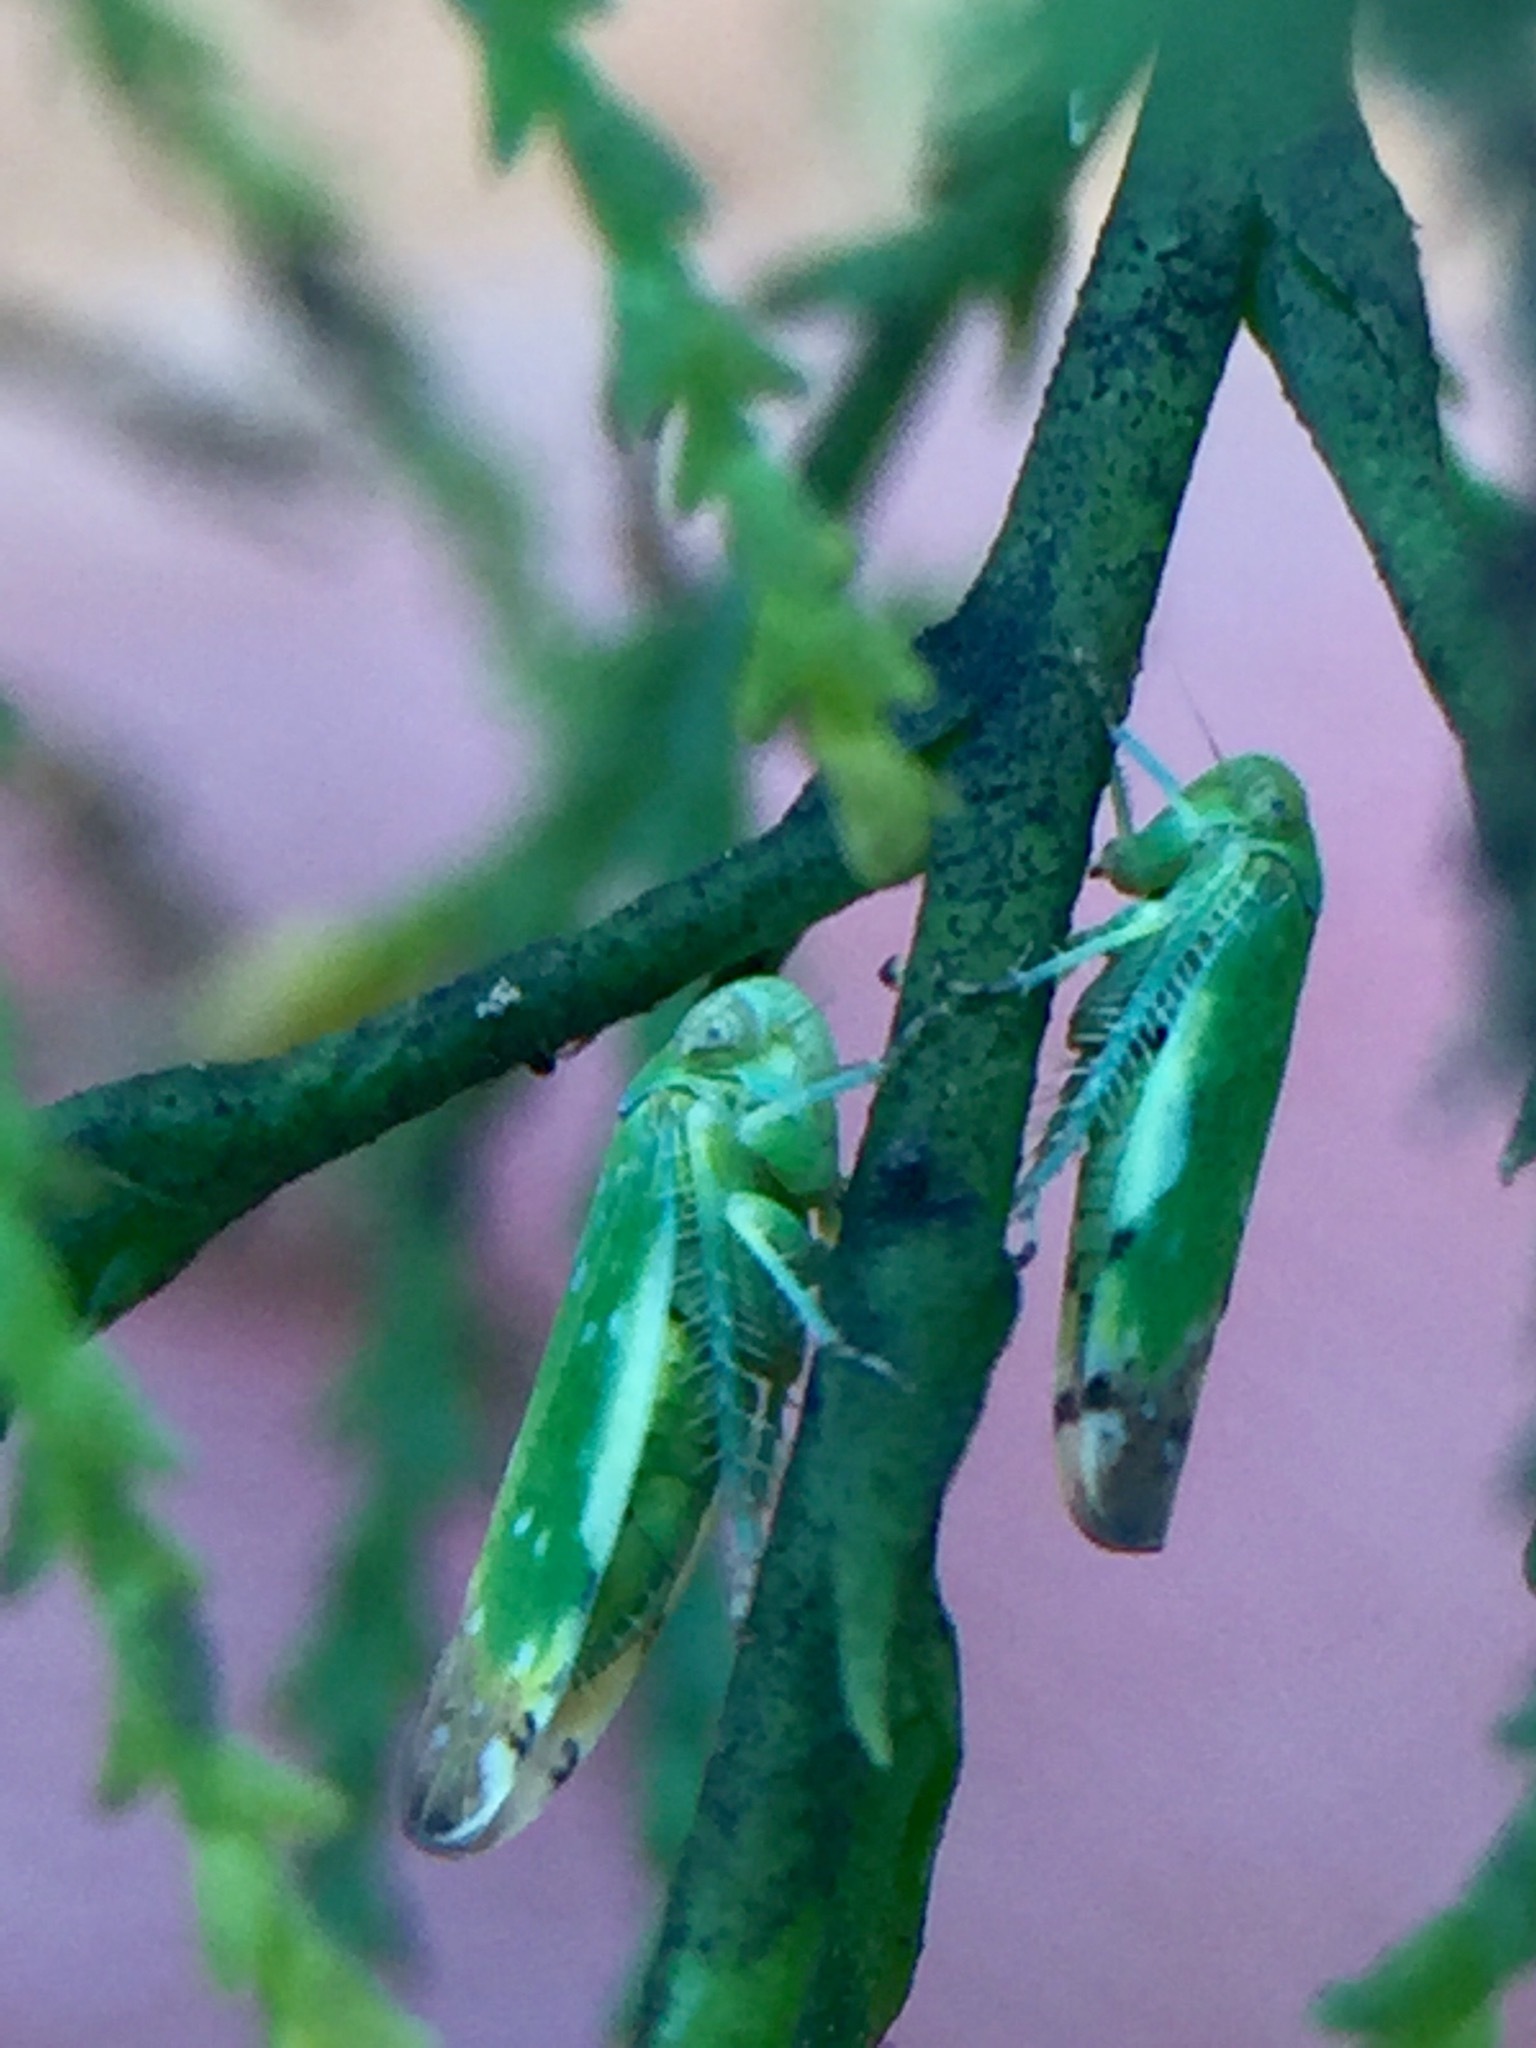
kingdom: Animalia
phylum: Arthropoda
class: Insecta
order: Hemiptera
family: Cicadellidae
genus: Opsius
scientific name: Opsius stactogalus
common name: Leafhopper
